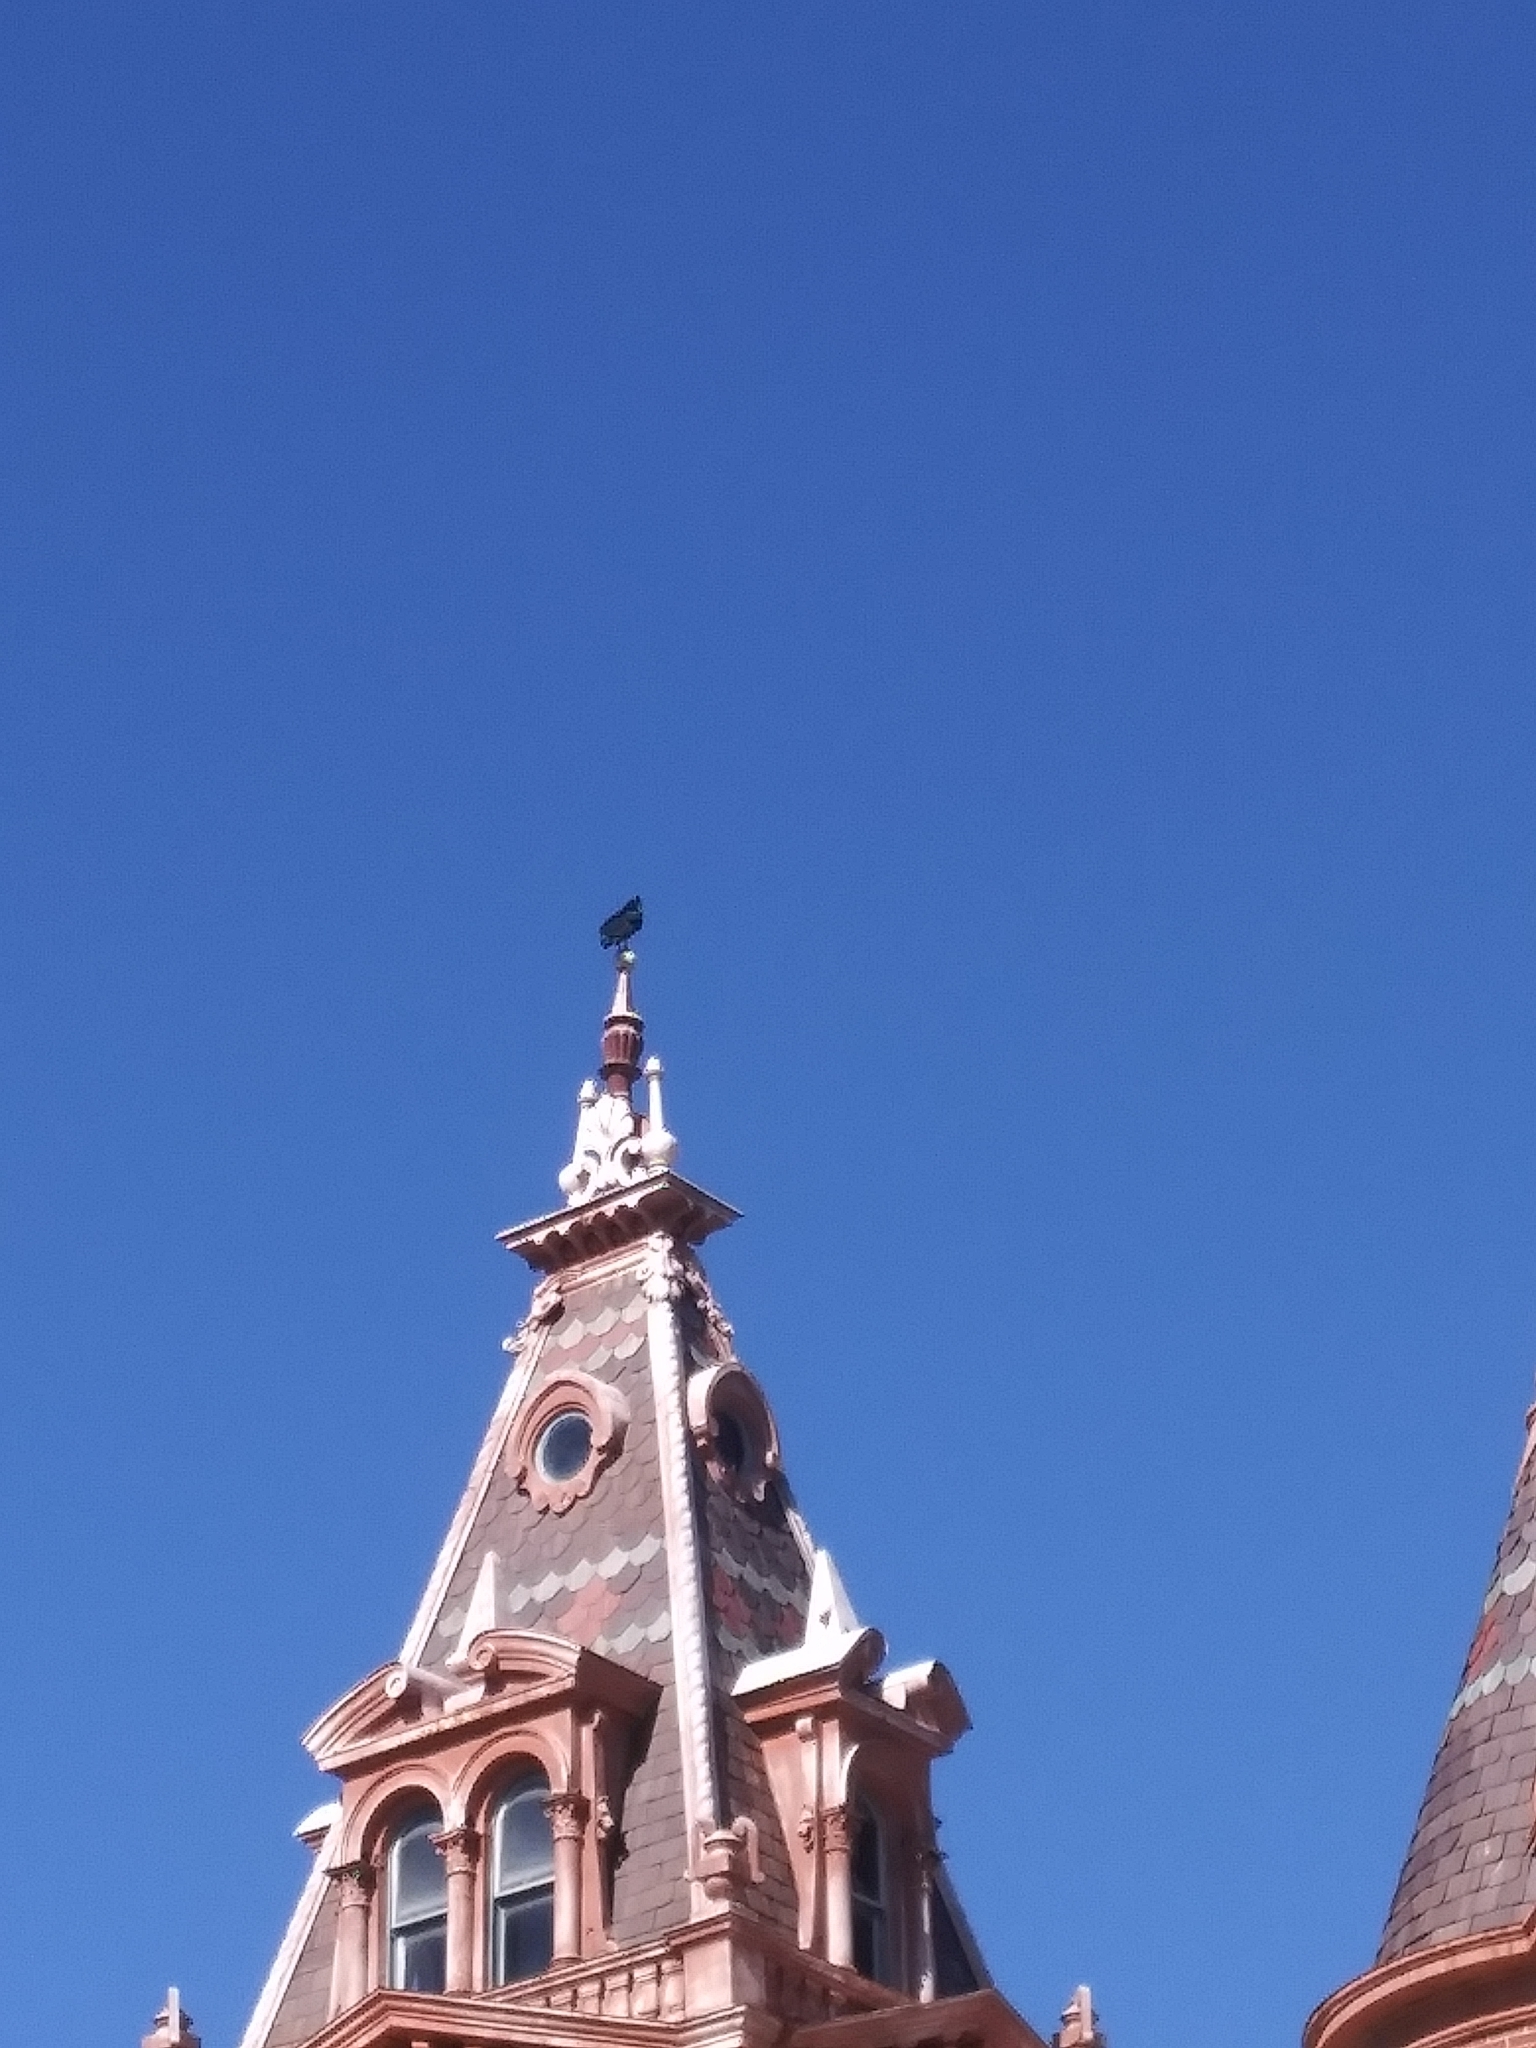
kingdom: Animalia
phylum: Chordata
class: Aves
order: Accipitriformes
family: Cathartidae
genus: Coragyps
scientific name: Coragyps atratus
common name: Black vulture
